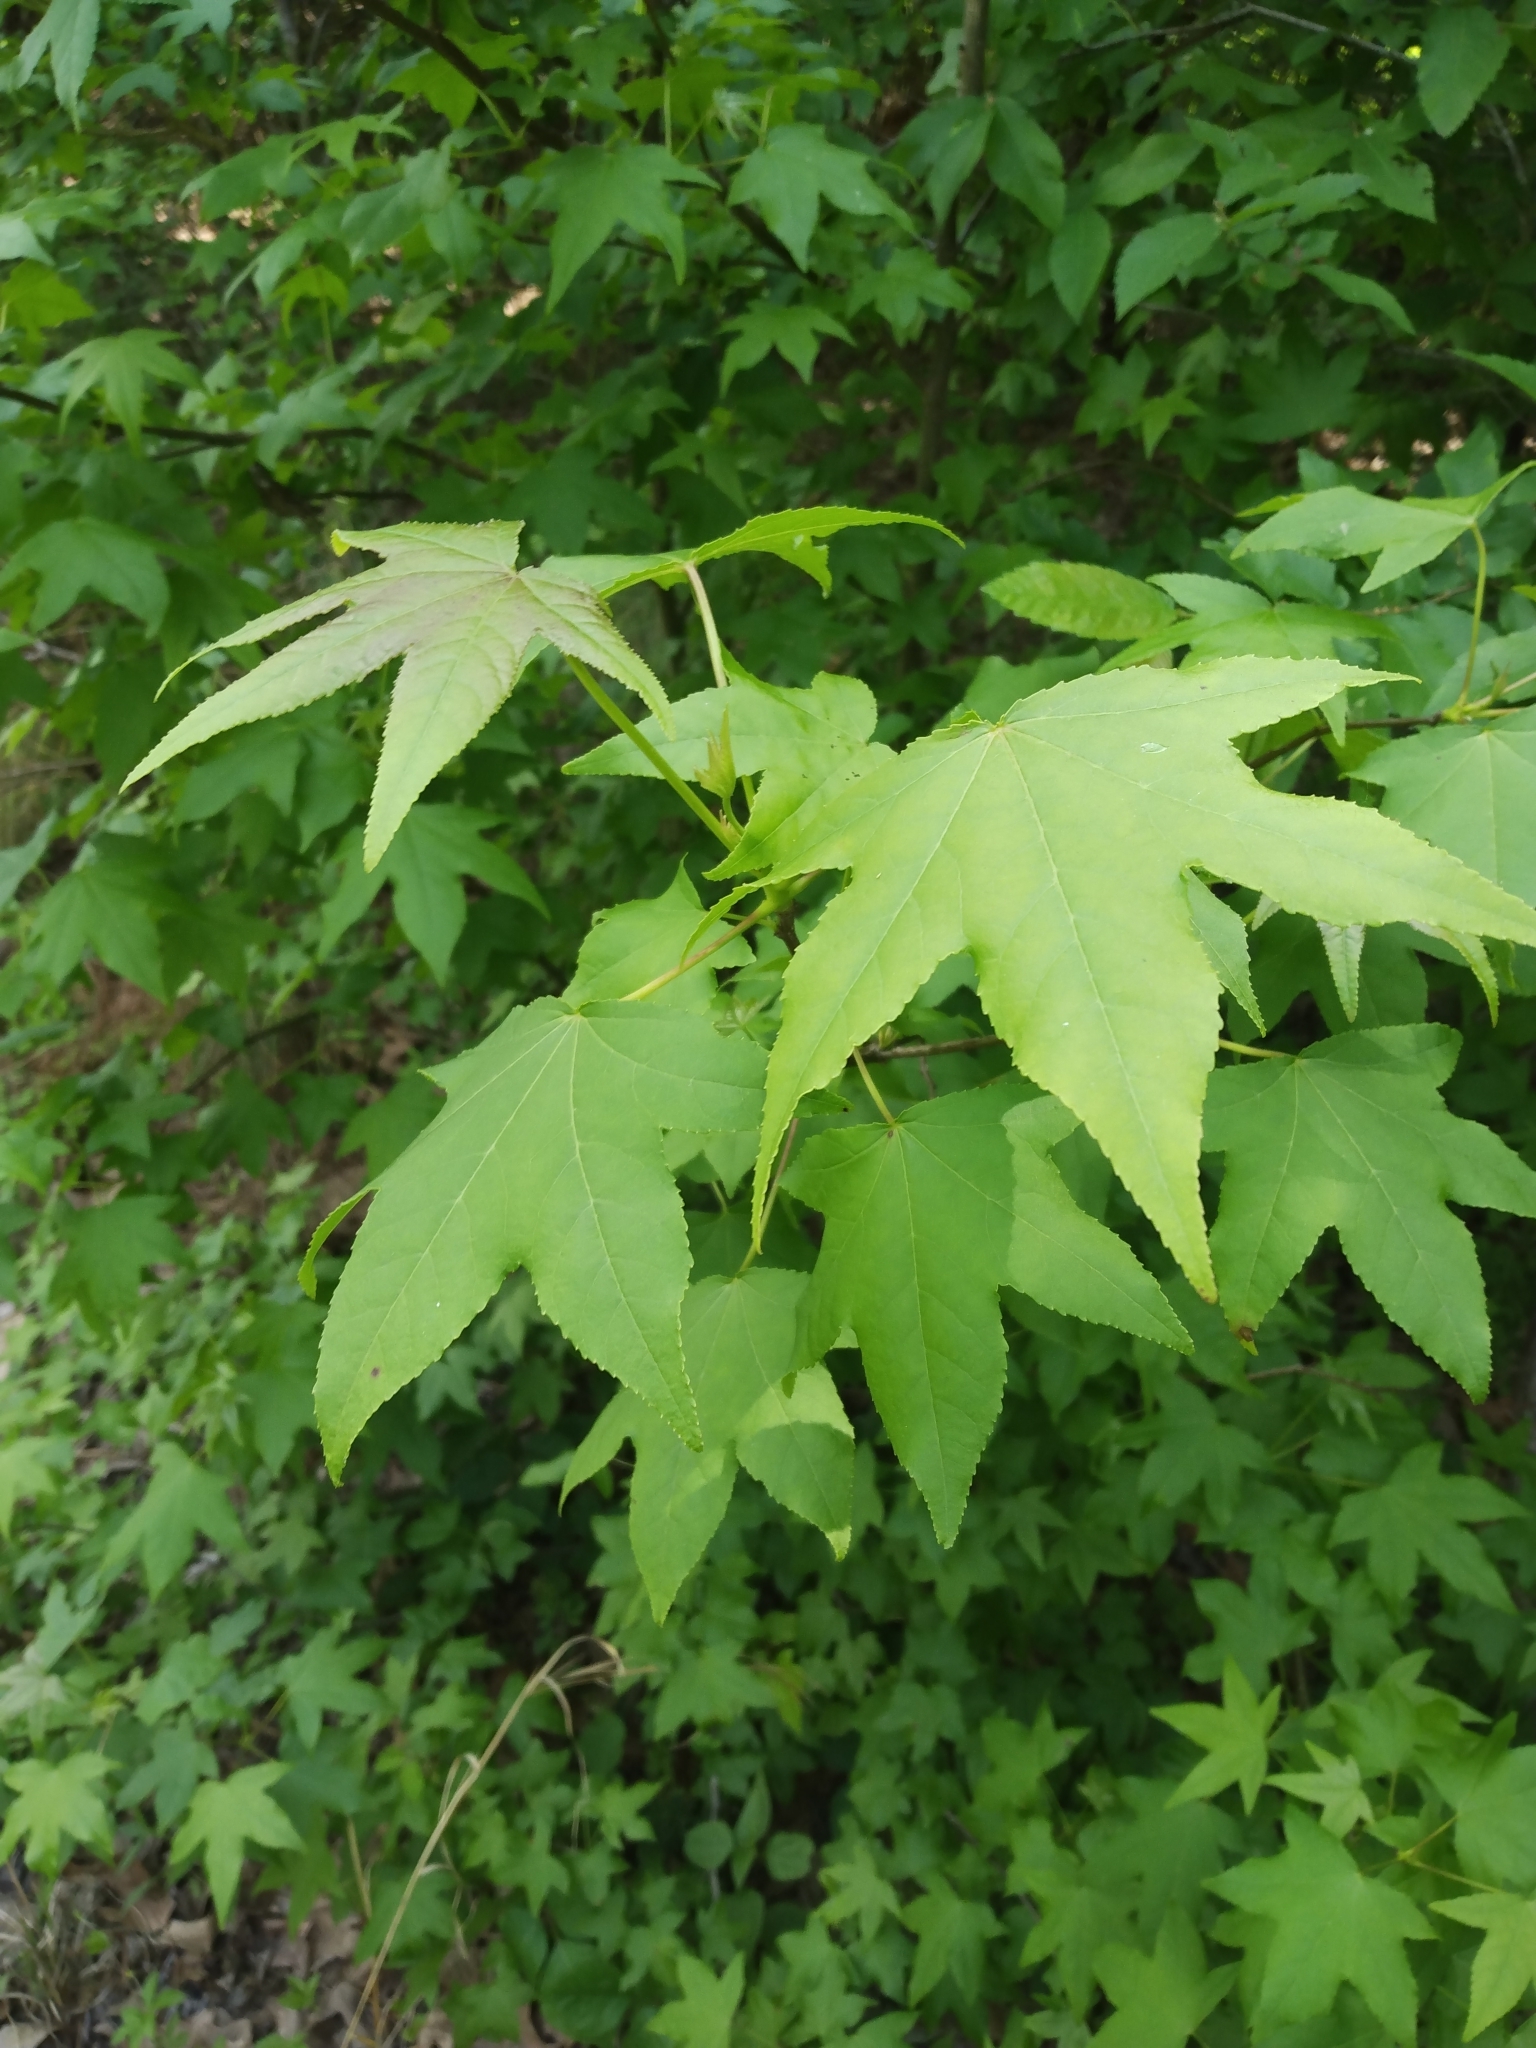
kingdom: Plantae
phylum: Tracheophyta
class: Magnoliopsida
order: Saxifragales
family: Altingiaceae
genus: Liquidambar
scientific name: Liquidambar styraciflua
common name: Sweet gum
